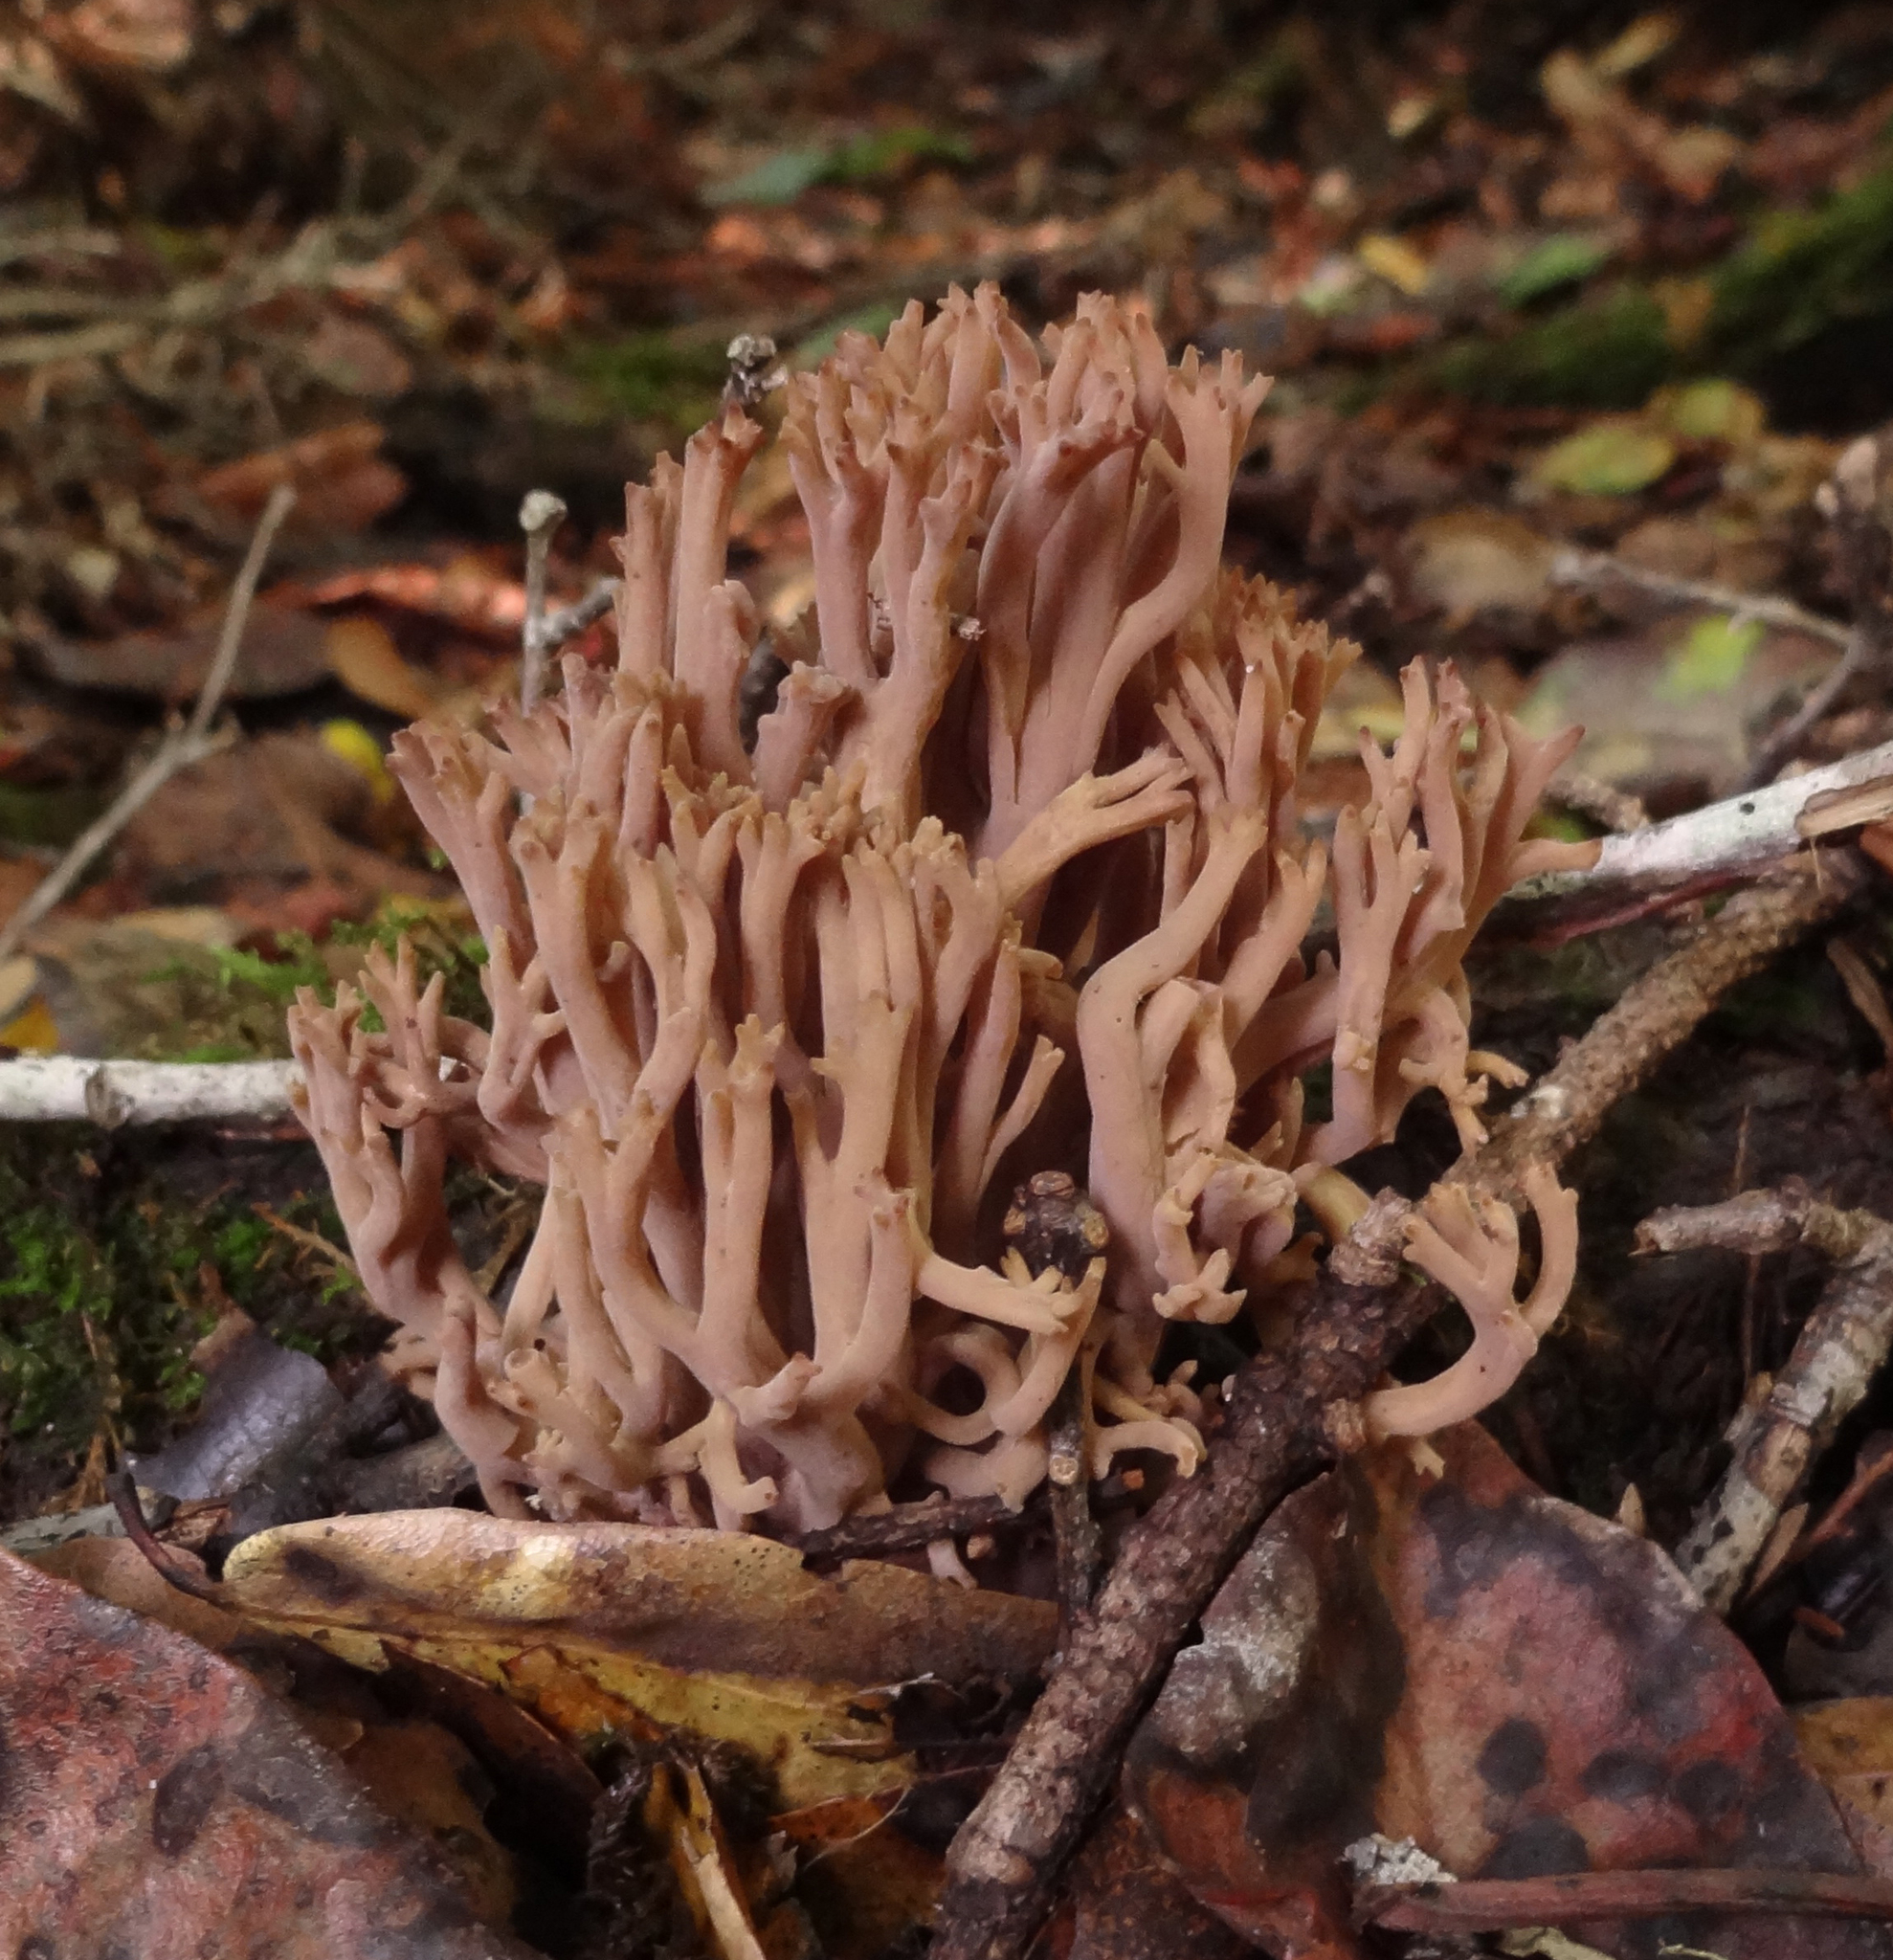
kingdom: Fungi
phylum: Basidiomycota
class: Agaricomycetes
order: Gomphales
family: Gomphaceae
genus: Ramaria
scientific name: Ramaria violaceibrunnea
